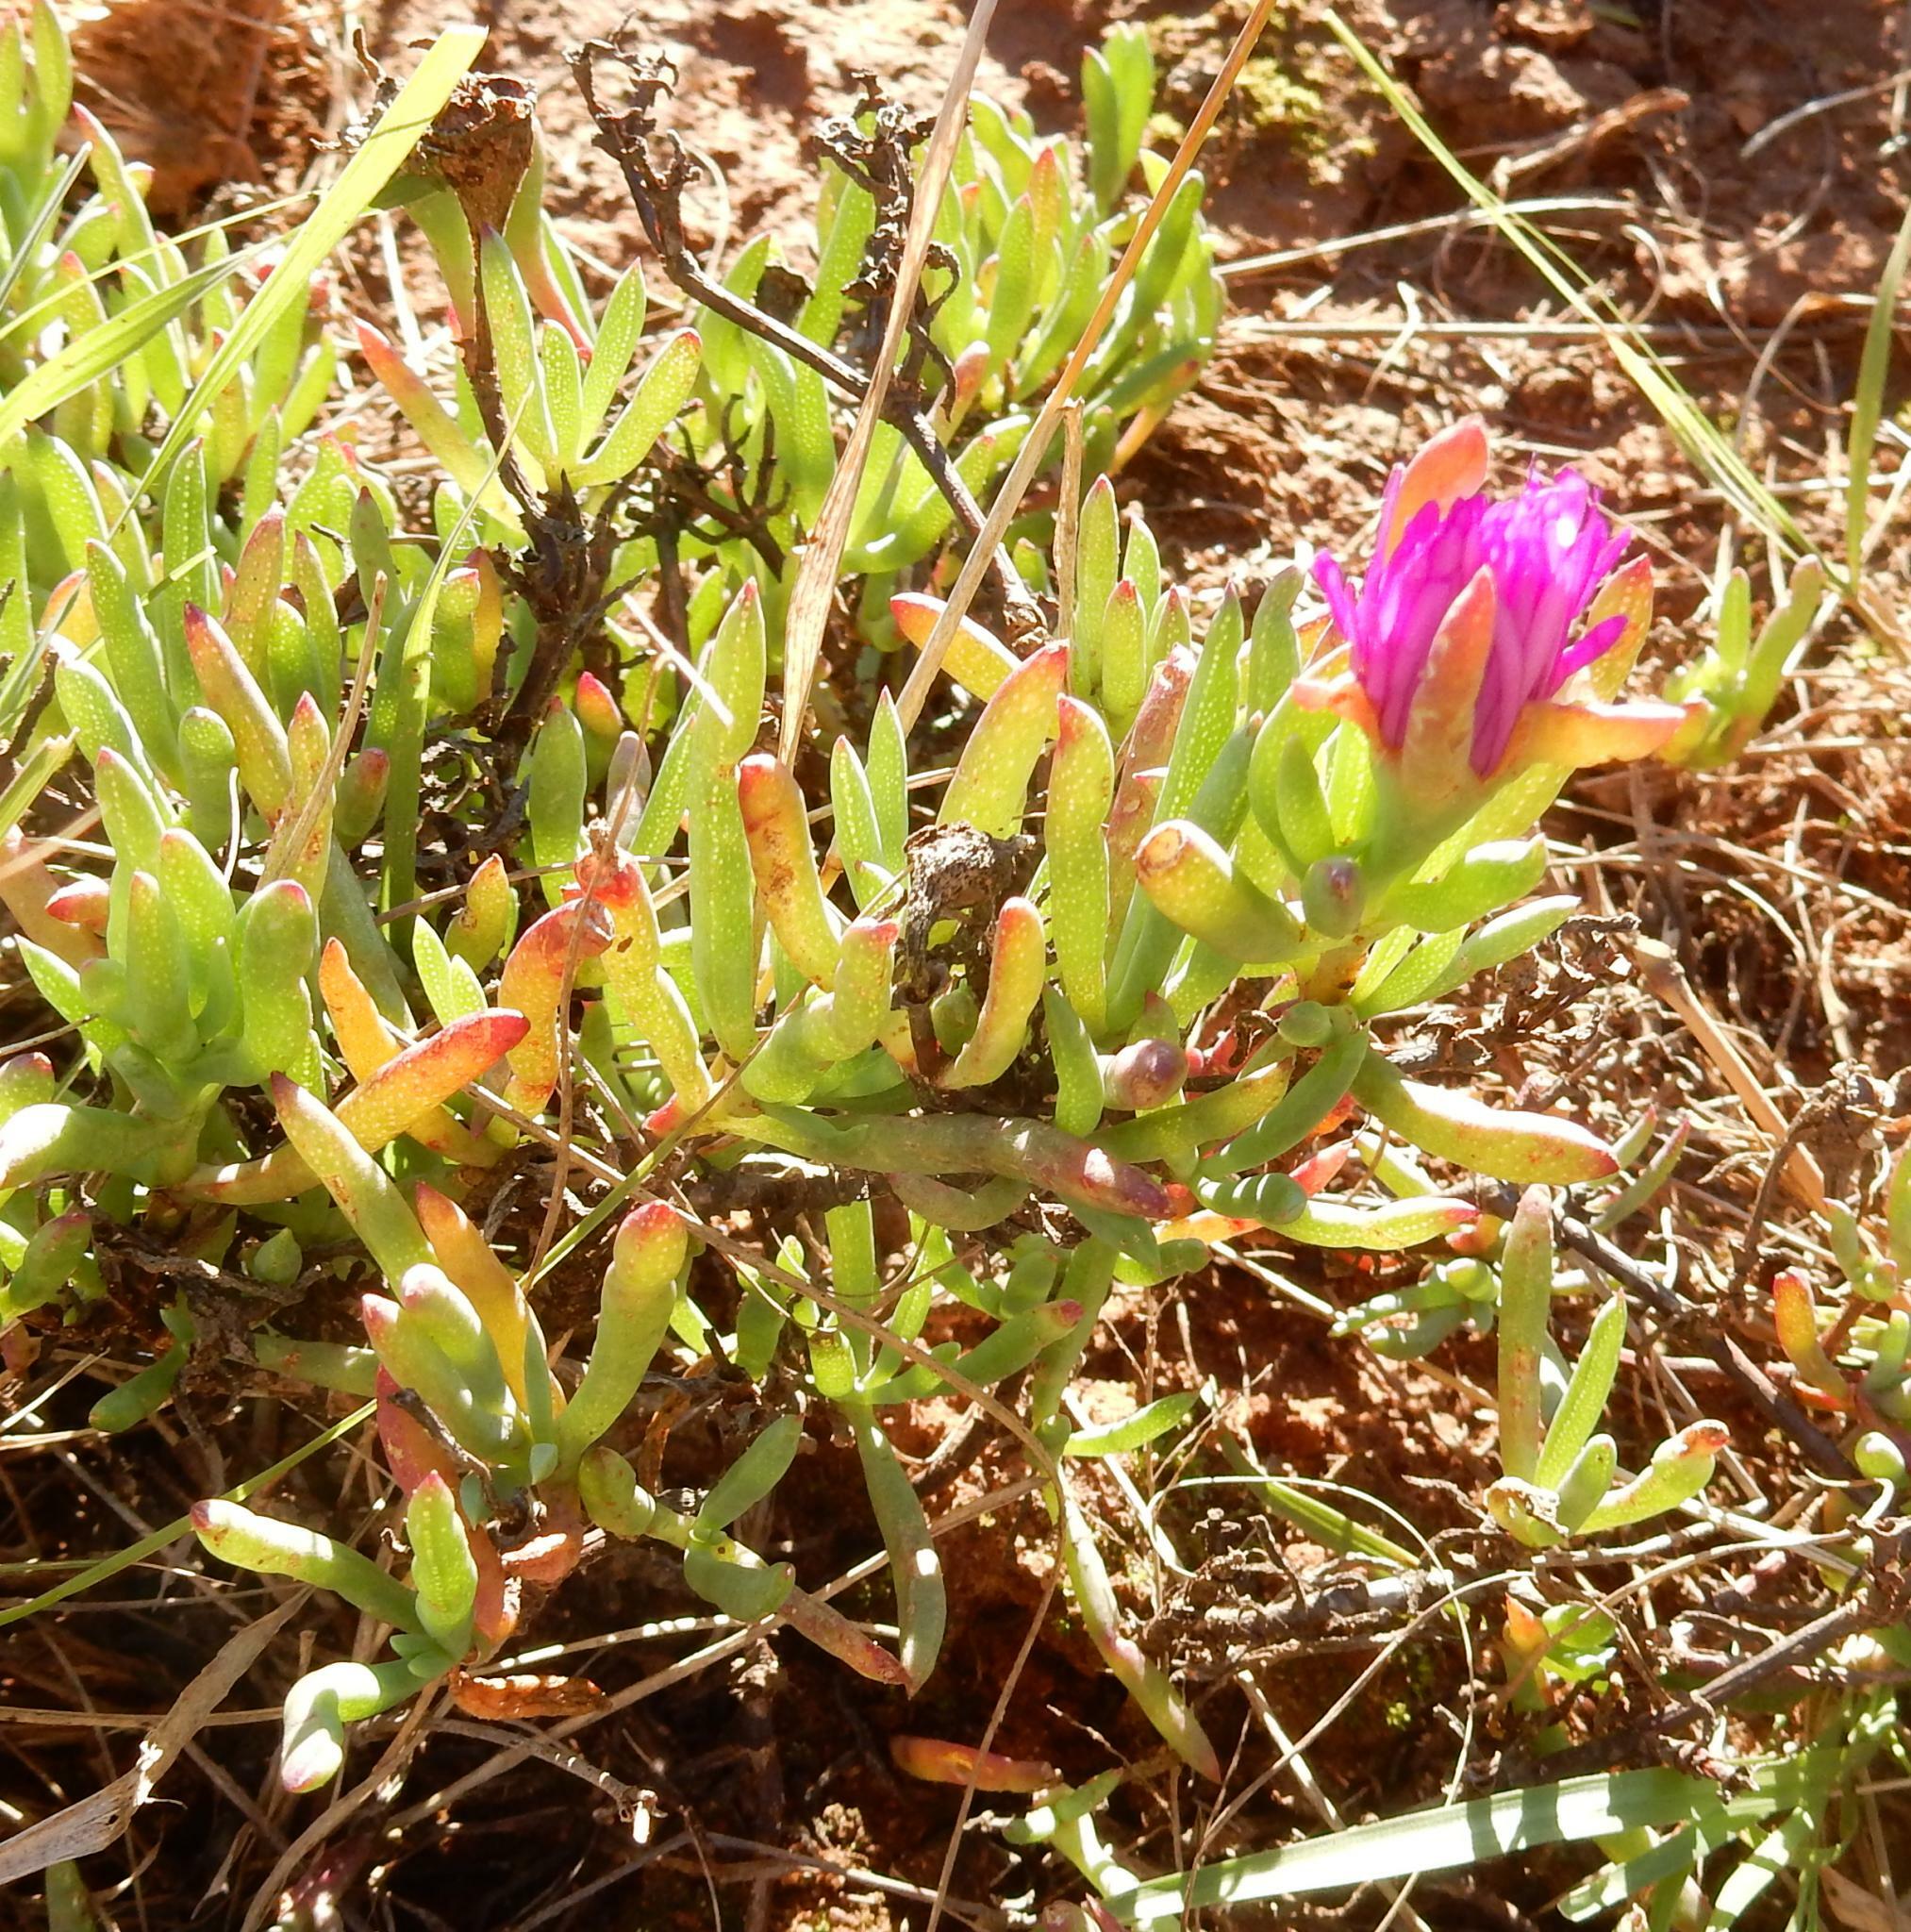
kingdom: Plantae
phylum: Tracheophyta
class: Magnoliopsida
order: Caryophyllales
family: Aizoaceae
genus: Lampranthus
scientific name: Lampranthus spectabilis
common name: Trailing iceplant
